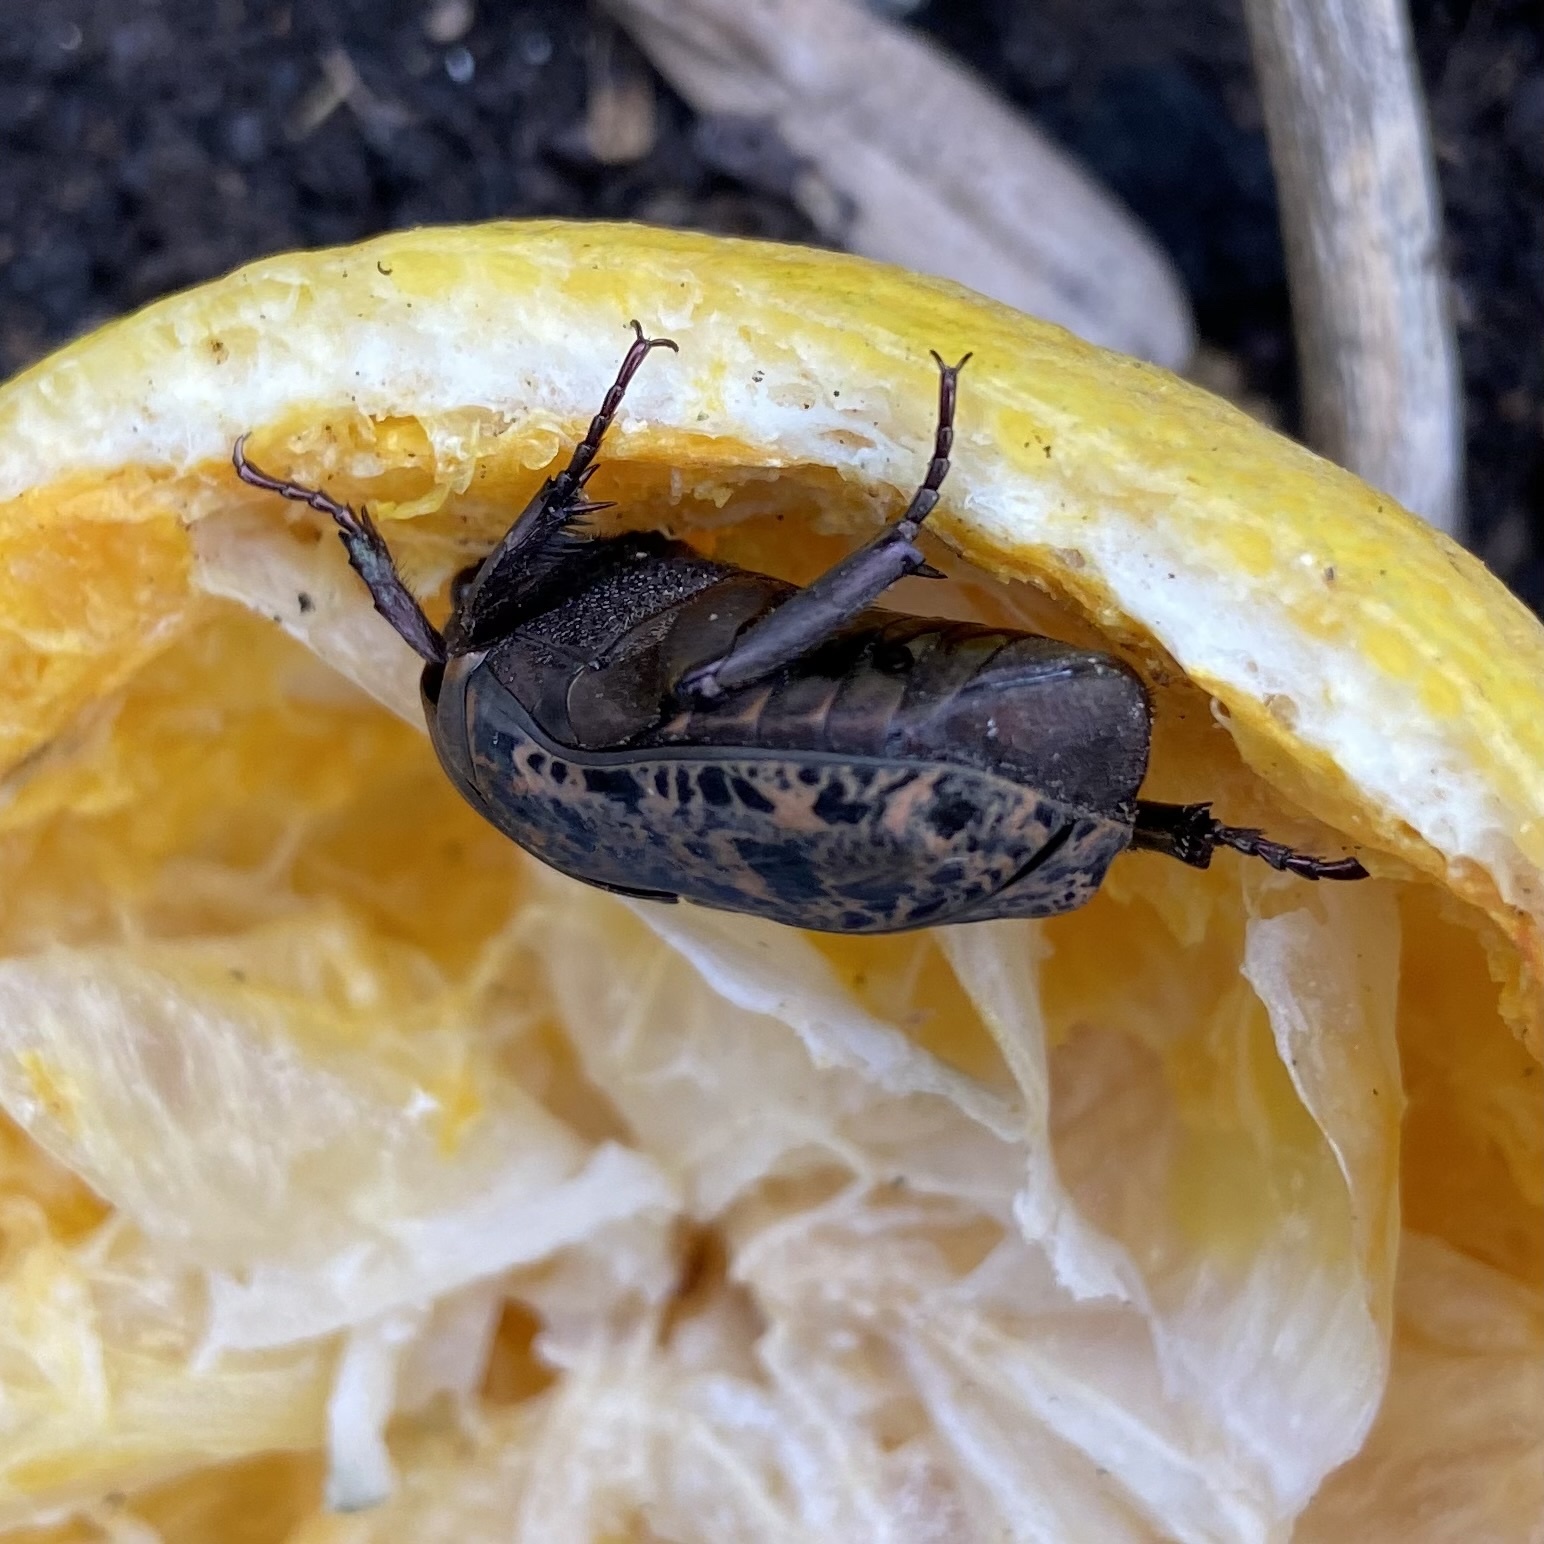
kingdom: Animalia
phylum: Arthropoda
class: Insecta
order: Coleoptera
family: Scarabaeidae
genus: Gymnetis
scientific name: Gymnetis chalcipes
